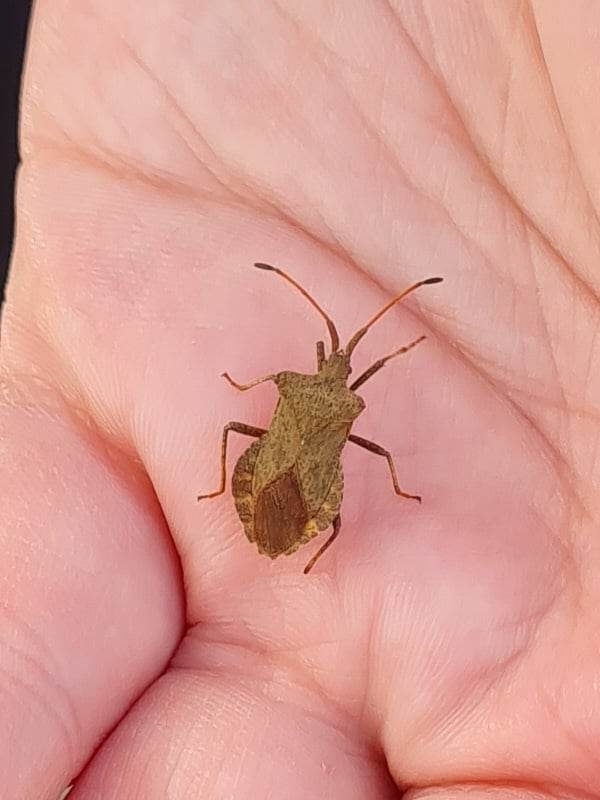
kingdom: Animalia
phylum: Arthropoda
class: Insecta
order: Hemiptera
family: Coreidae
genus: Coreus
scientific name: Coreus marginatus
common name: Dock bug
